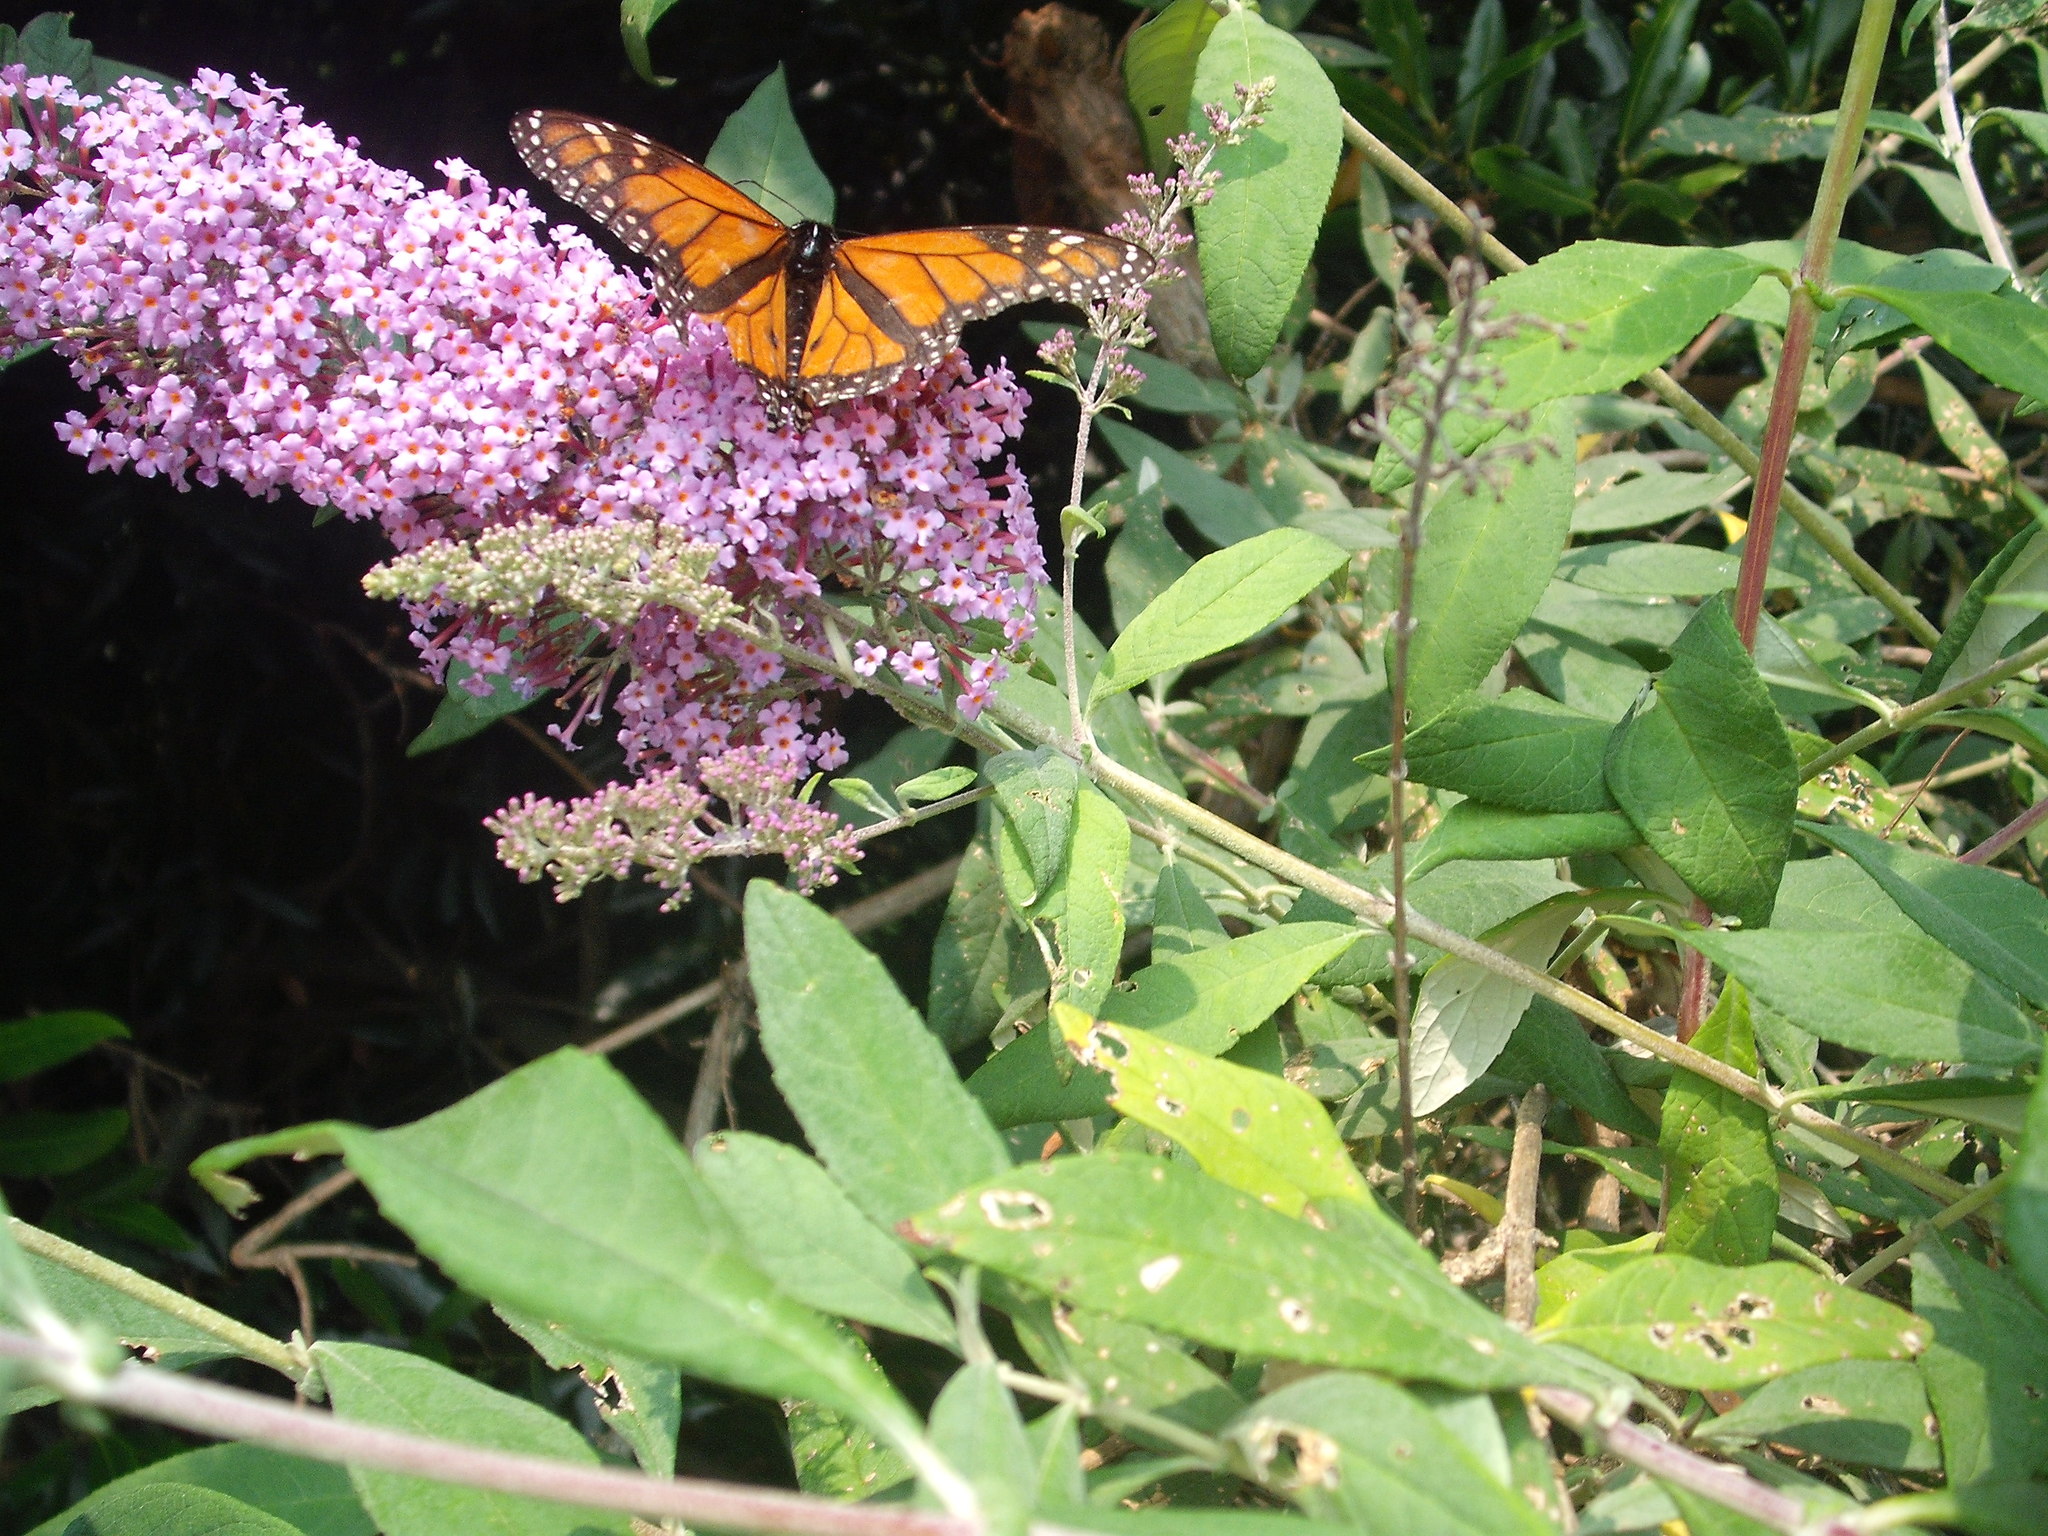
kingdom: Animalia
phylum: Arthropoda
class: Insecta
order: Lepidoptera
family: Nymphalidae
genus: Danaus
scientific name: Danaus plexippus
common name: Monarch
